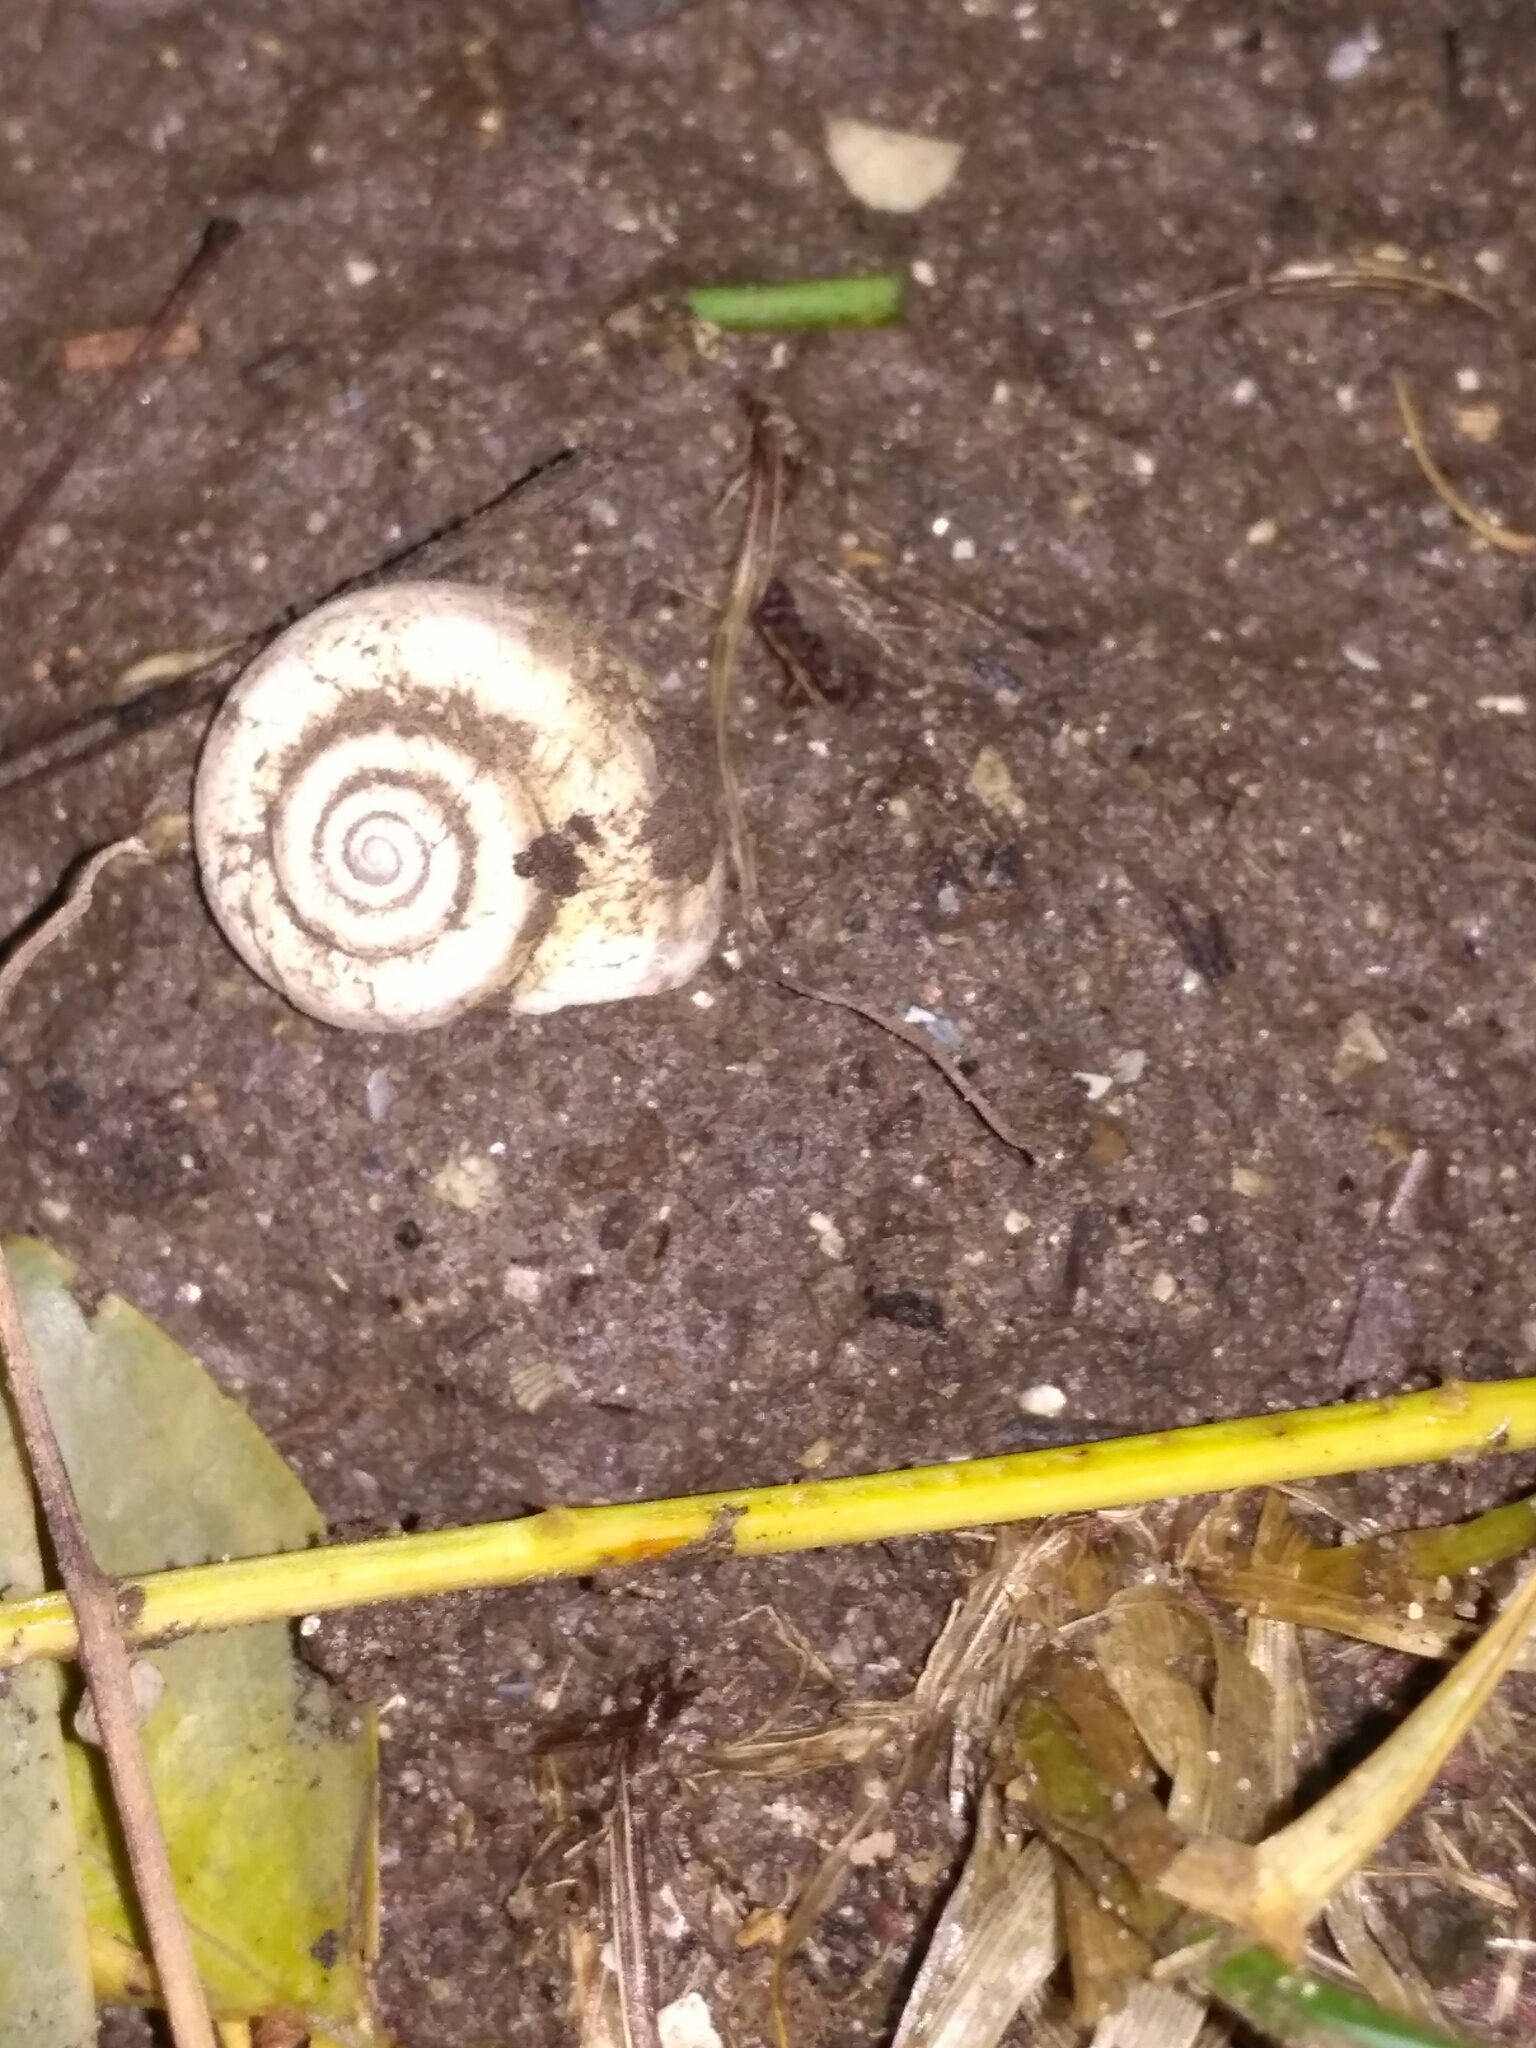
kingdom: Animalia
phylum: Mollusca
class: Gastropoda
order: Stylommatophora
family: Geomitridae
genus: Xeropicta
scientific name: Xeropicta derbentina
